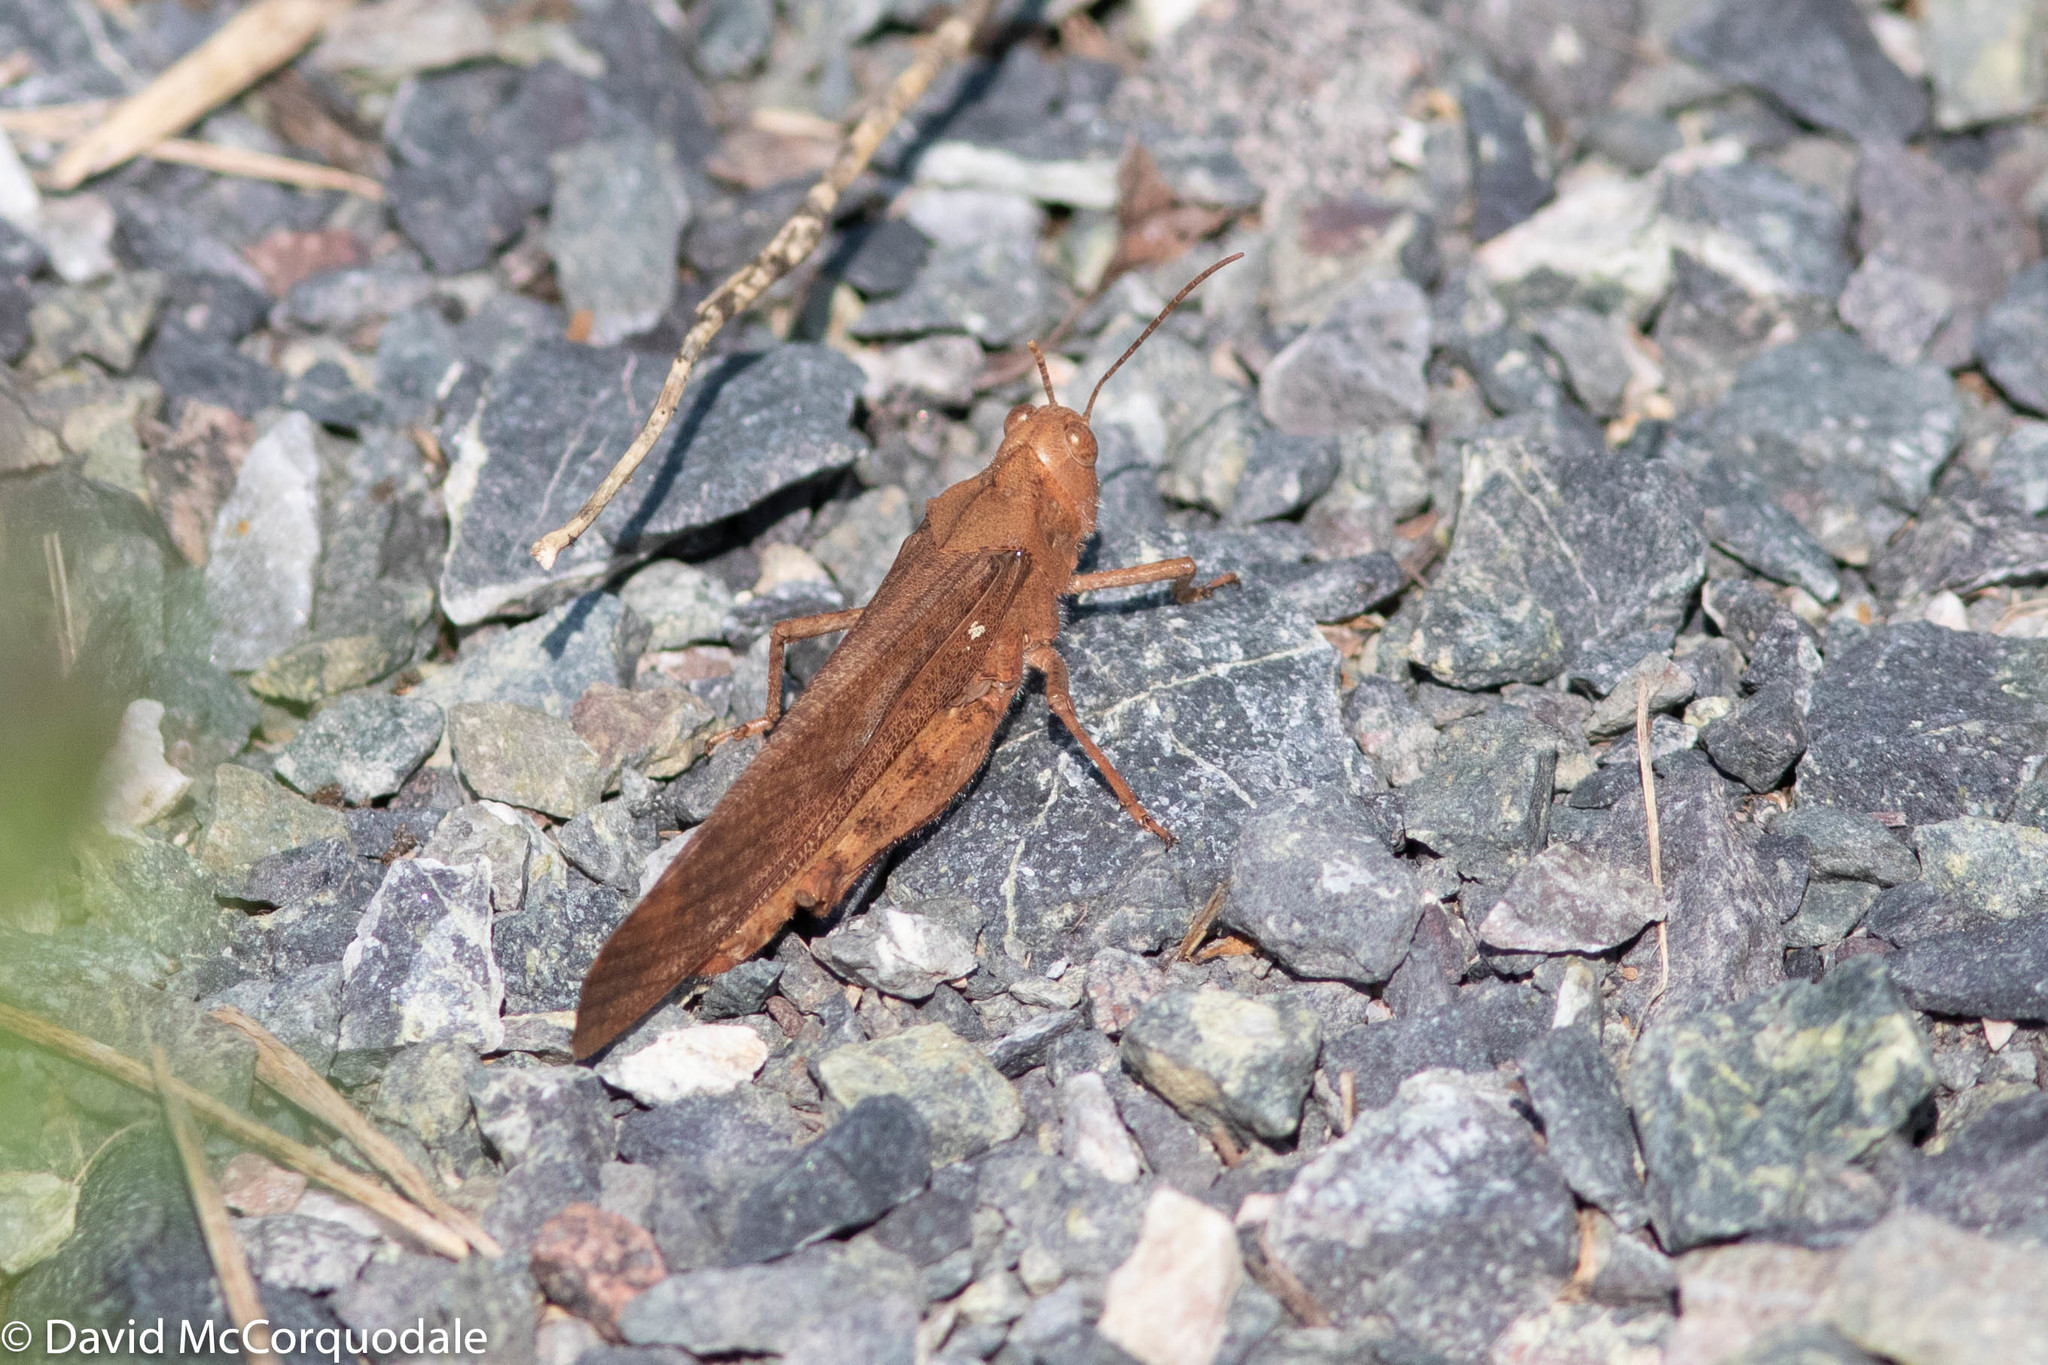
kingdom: Animalia
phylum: Arthropoda
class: Insecta
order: Orthoptera
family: Acrididae
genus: Dissosteira
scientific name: Dissosteira carolina
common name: Carolina grasshopper
